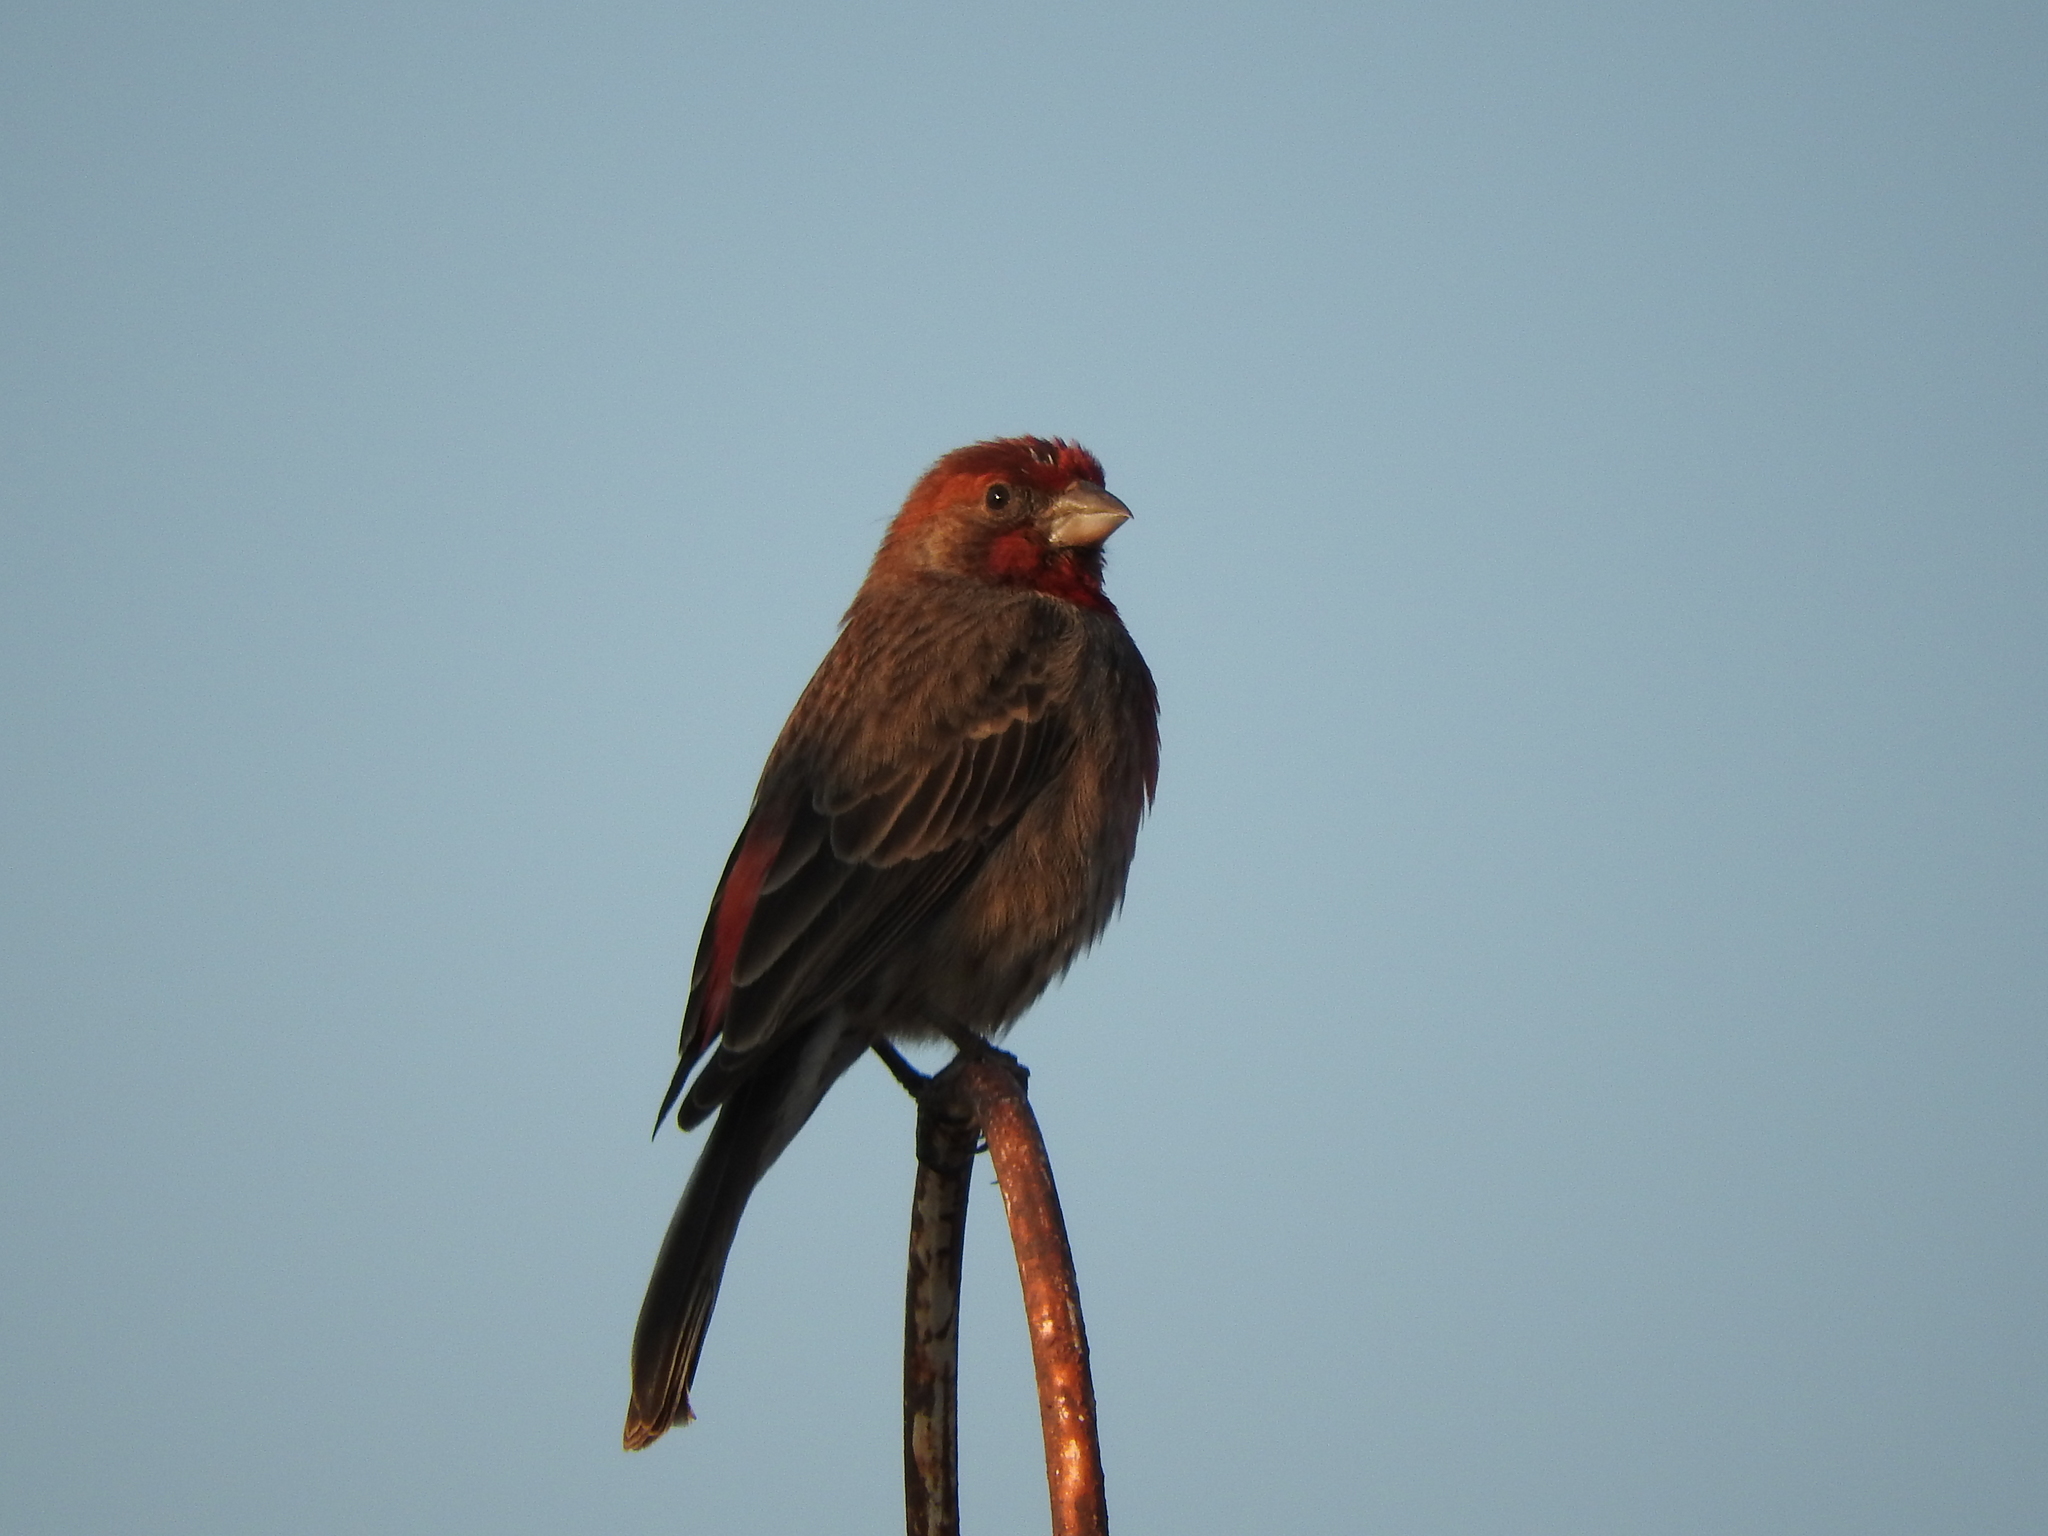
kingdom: Animalia
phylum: Chordata
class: Aves
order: Passeriformes
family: Fringillidae
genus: Haemorhous
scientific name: Haemorhous mexicanus
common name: House finch
